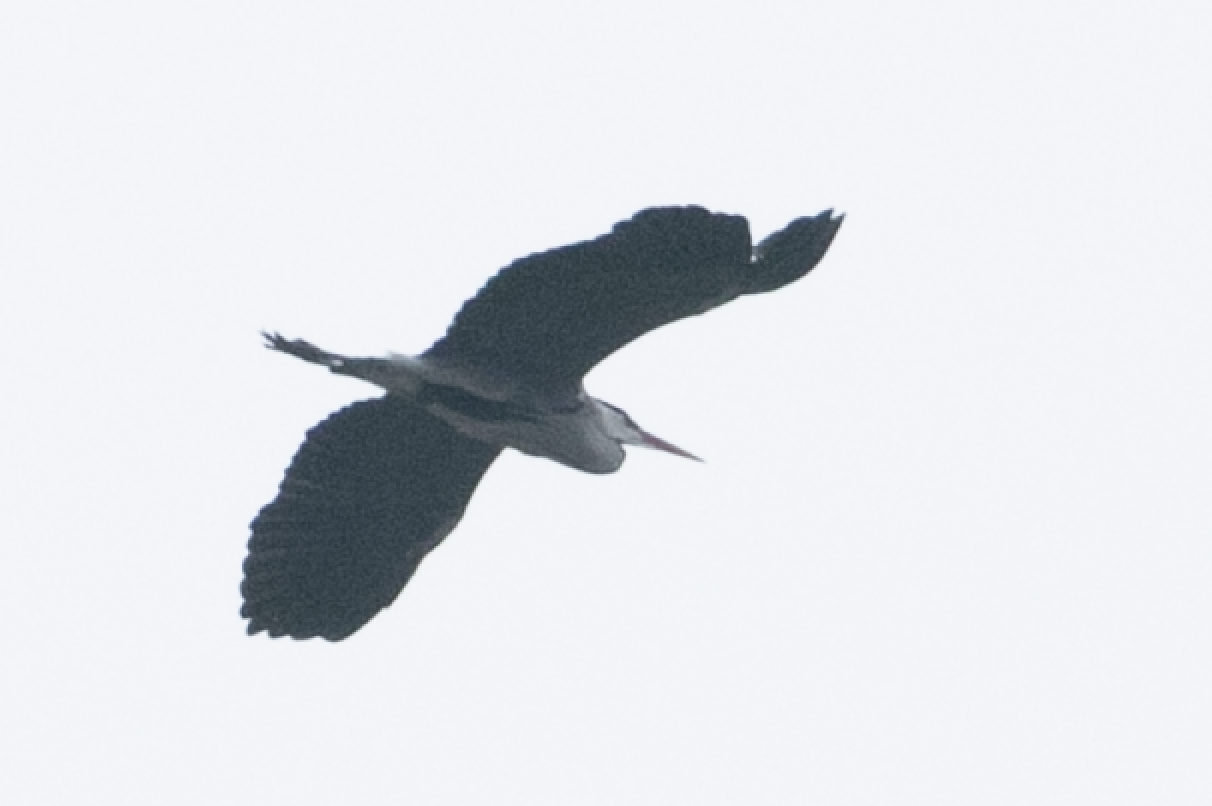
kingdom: Animalia
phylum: Chordata
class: Aves
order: Pelecaniformes
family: Ardeidae
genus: Ardea
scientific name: Ardea cinerea
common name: Grey heron
